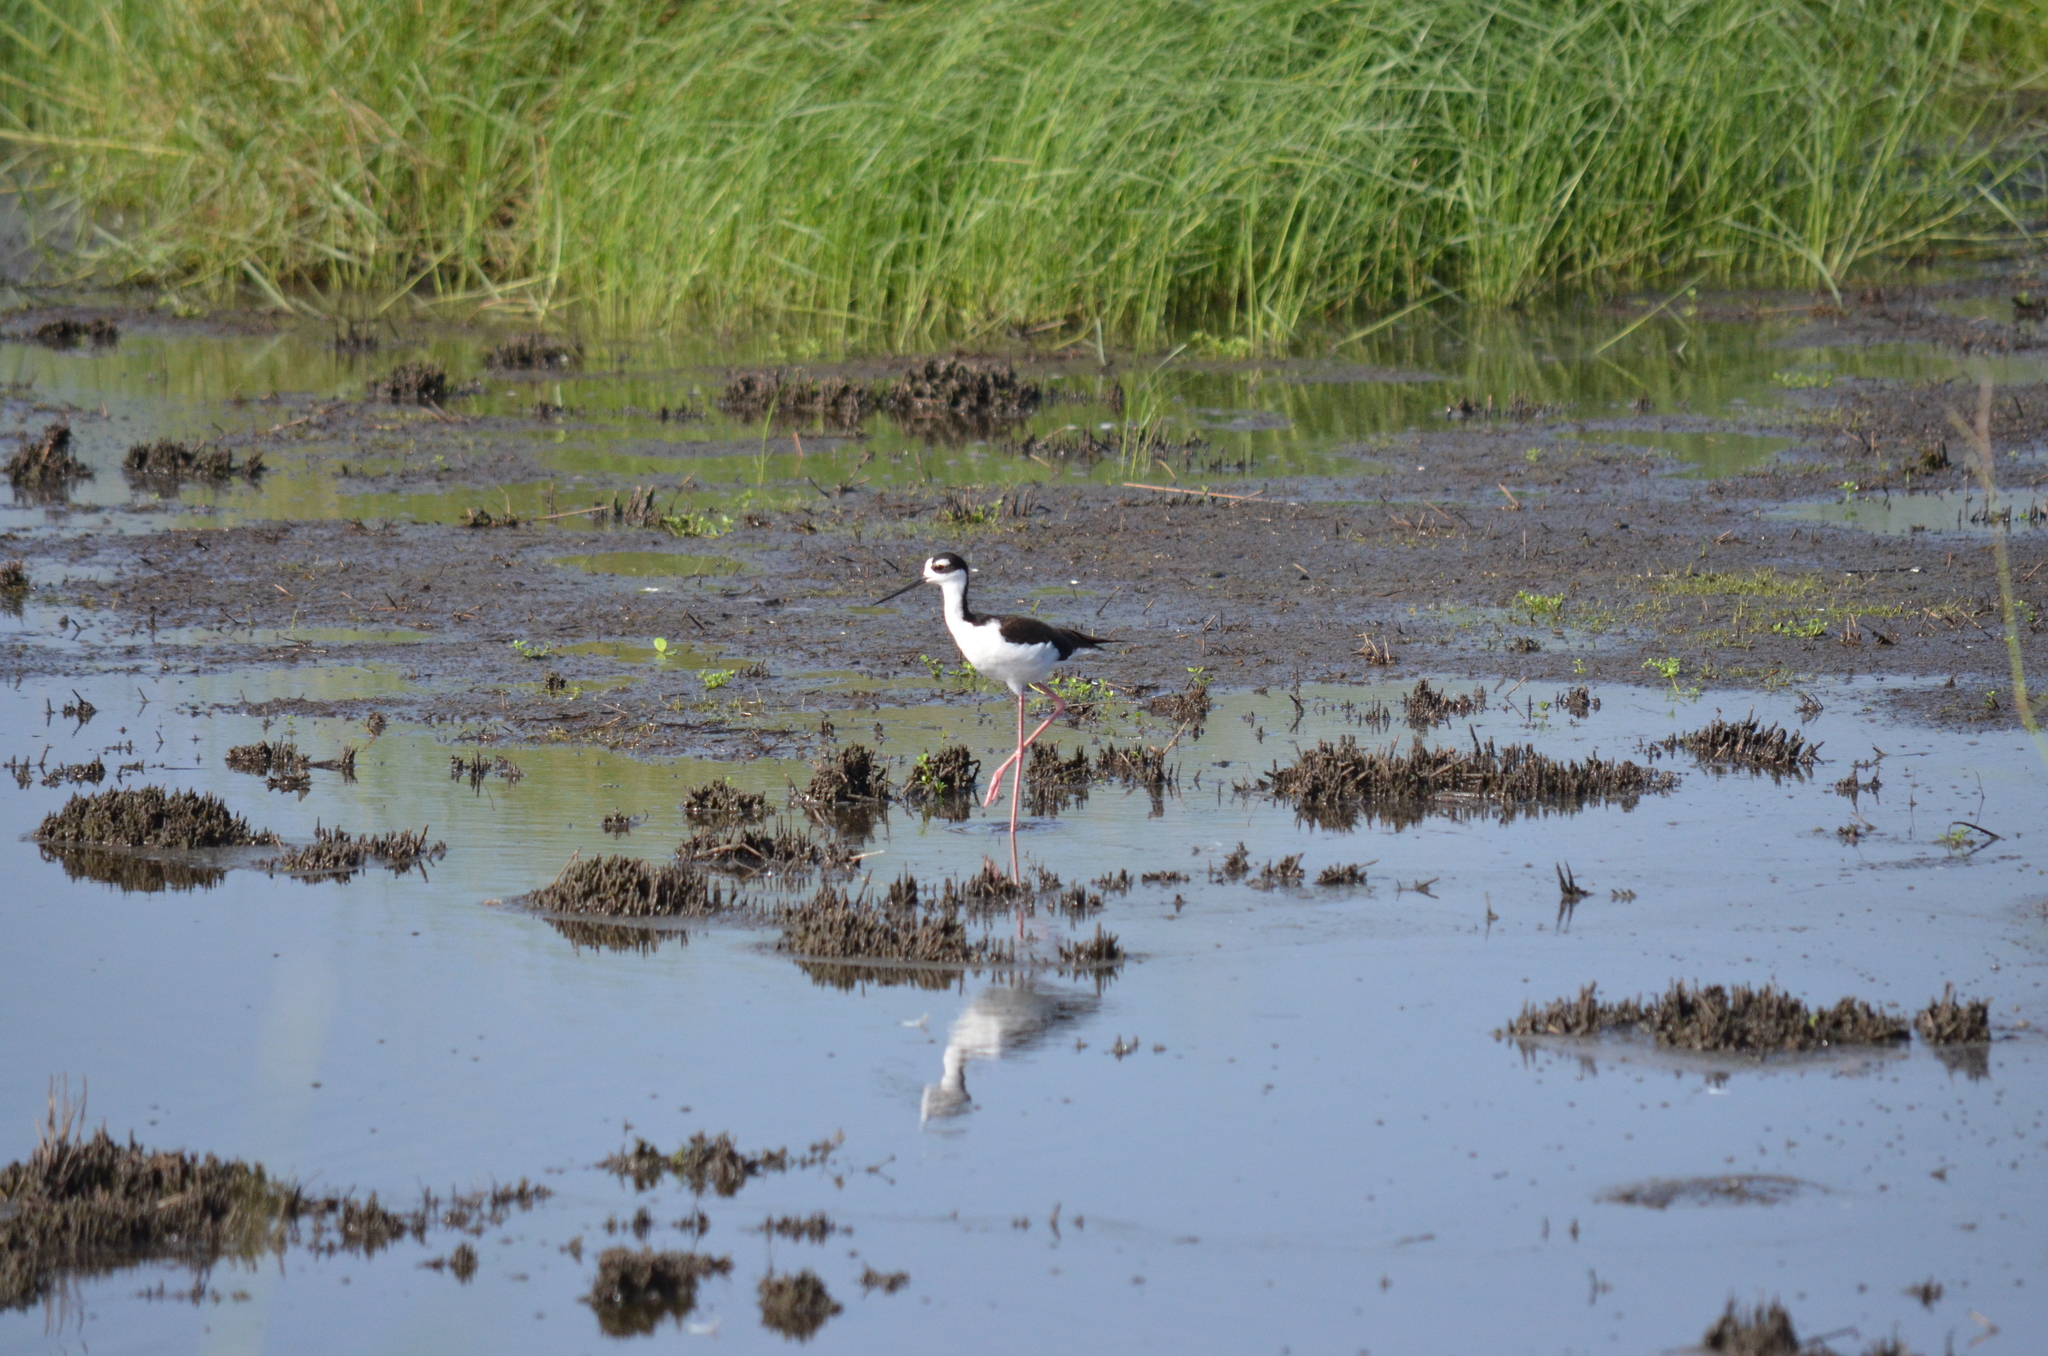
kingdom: Animalia
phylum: Chordata
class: Aves
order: Charadriiformes
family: Recurvirostridae
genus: Himantopus
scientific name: Himantopus mexicanus
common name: Black-necked stilt
